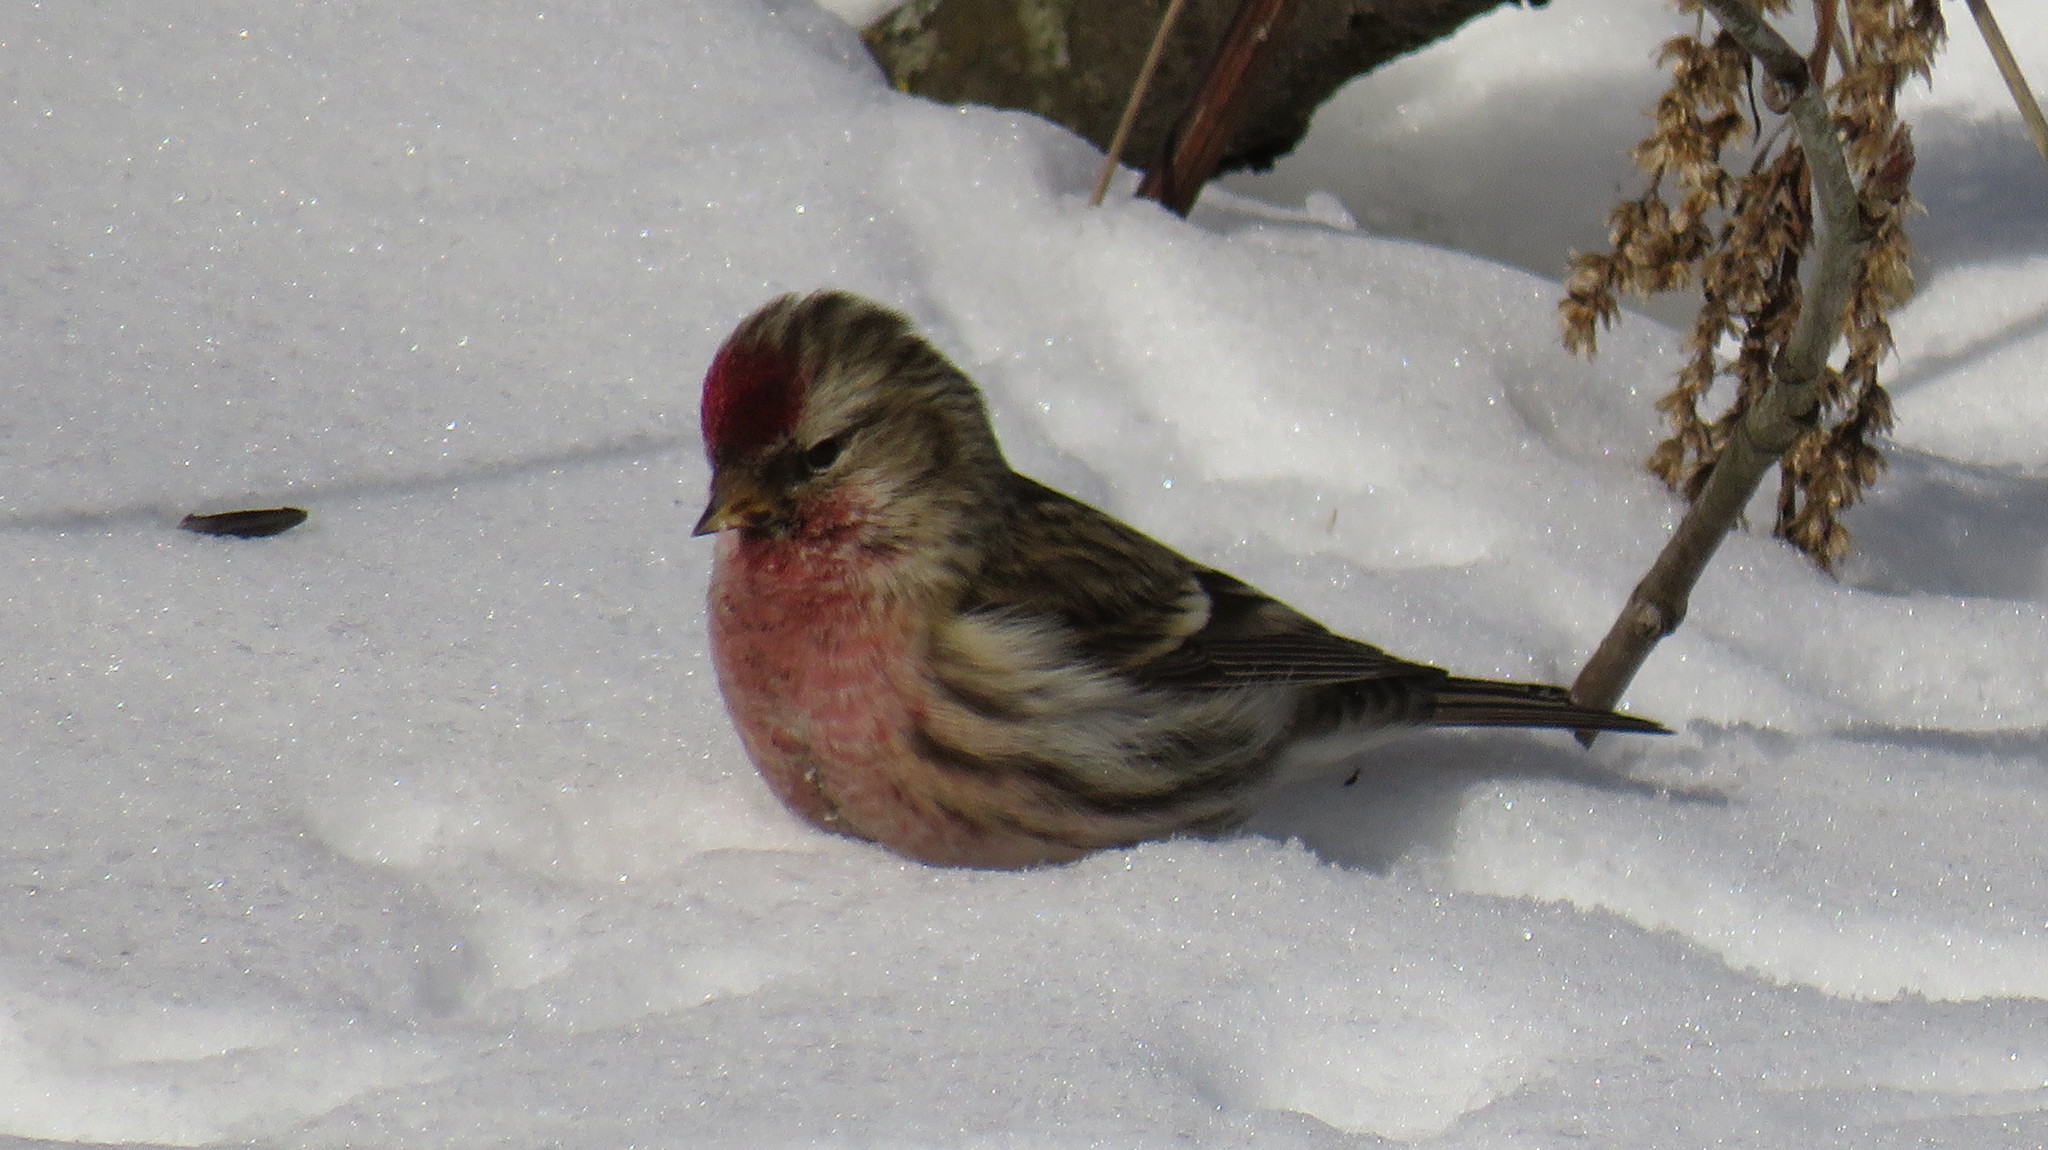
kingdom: Animalia
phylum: Chordata
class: Aves
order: Passeriformes
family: Fringillidae
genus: Acanthis
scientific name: Acanthis flammea
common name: Common redpoll
